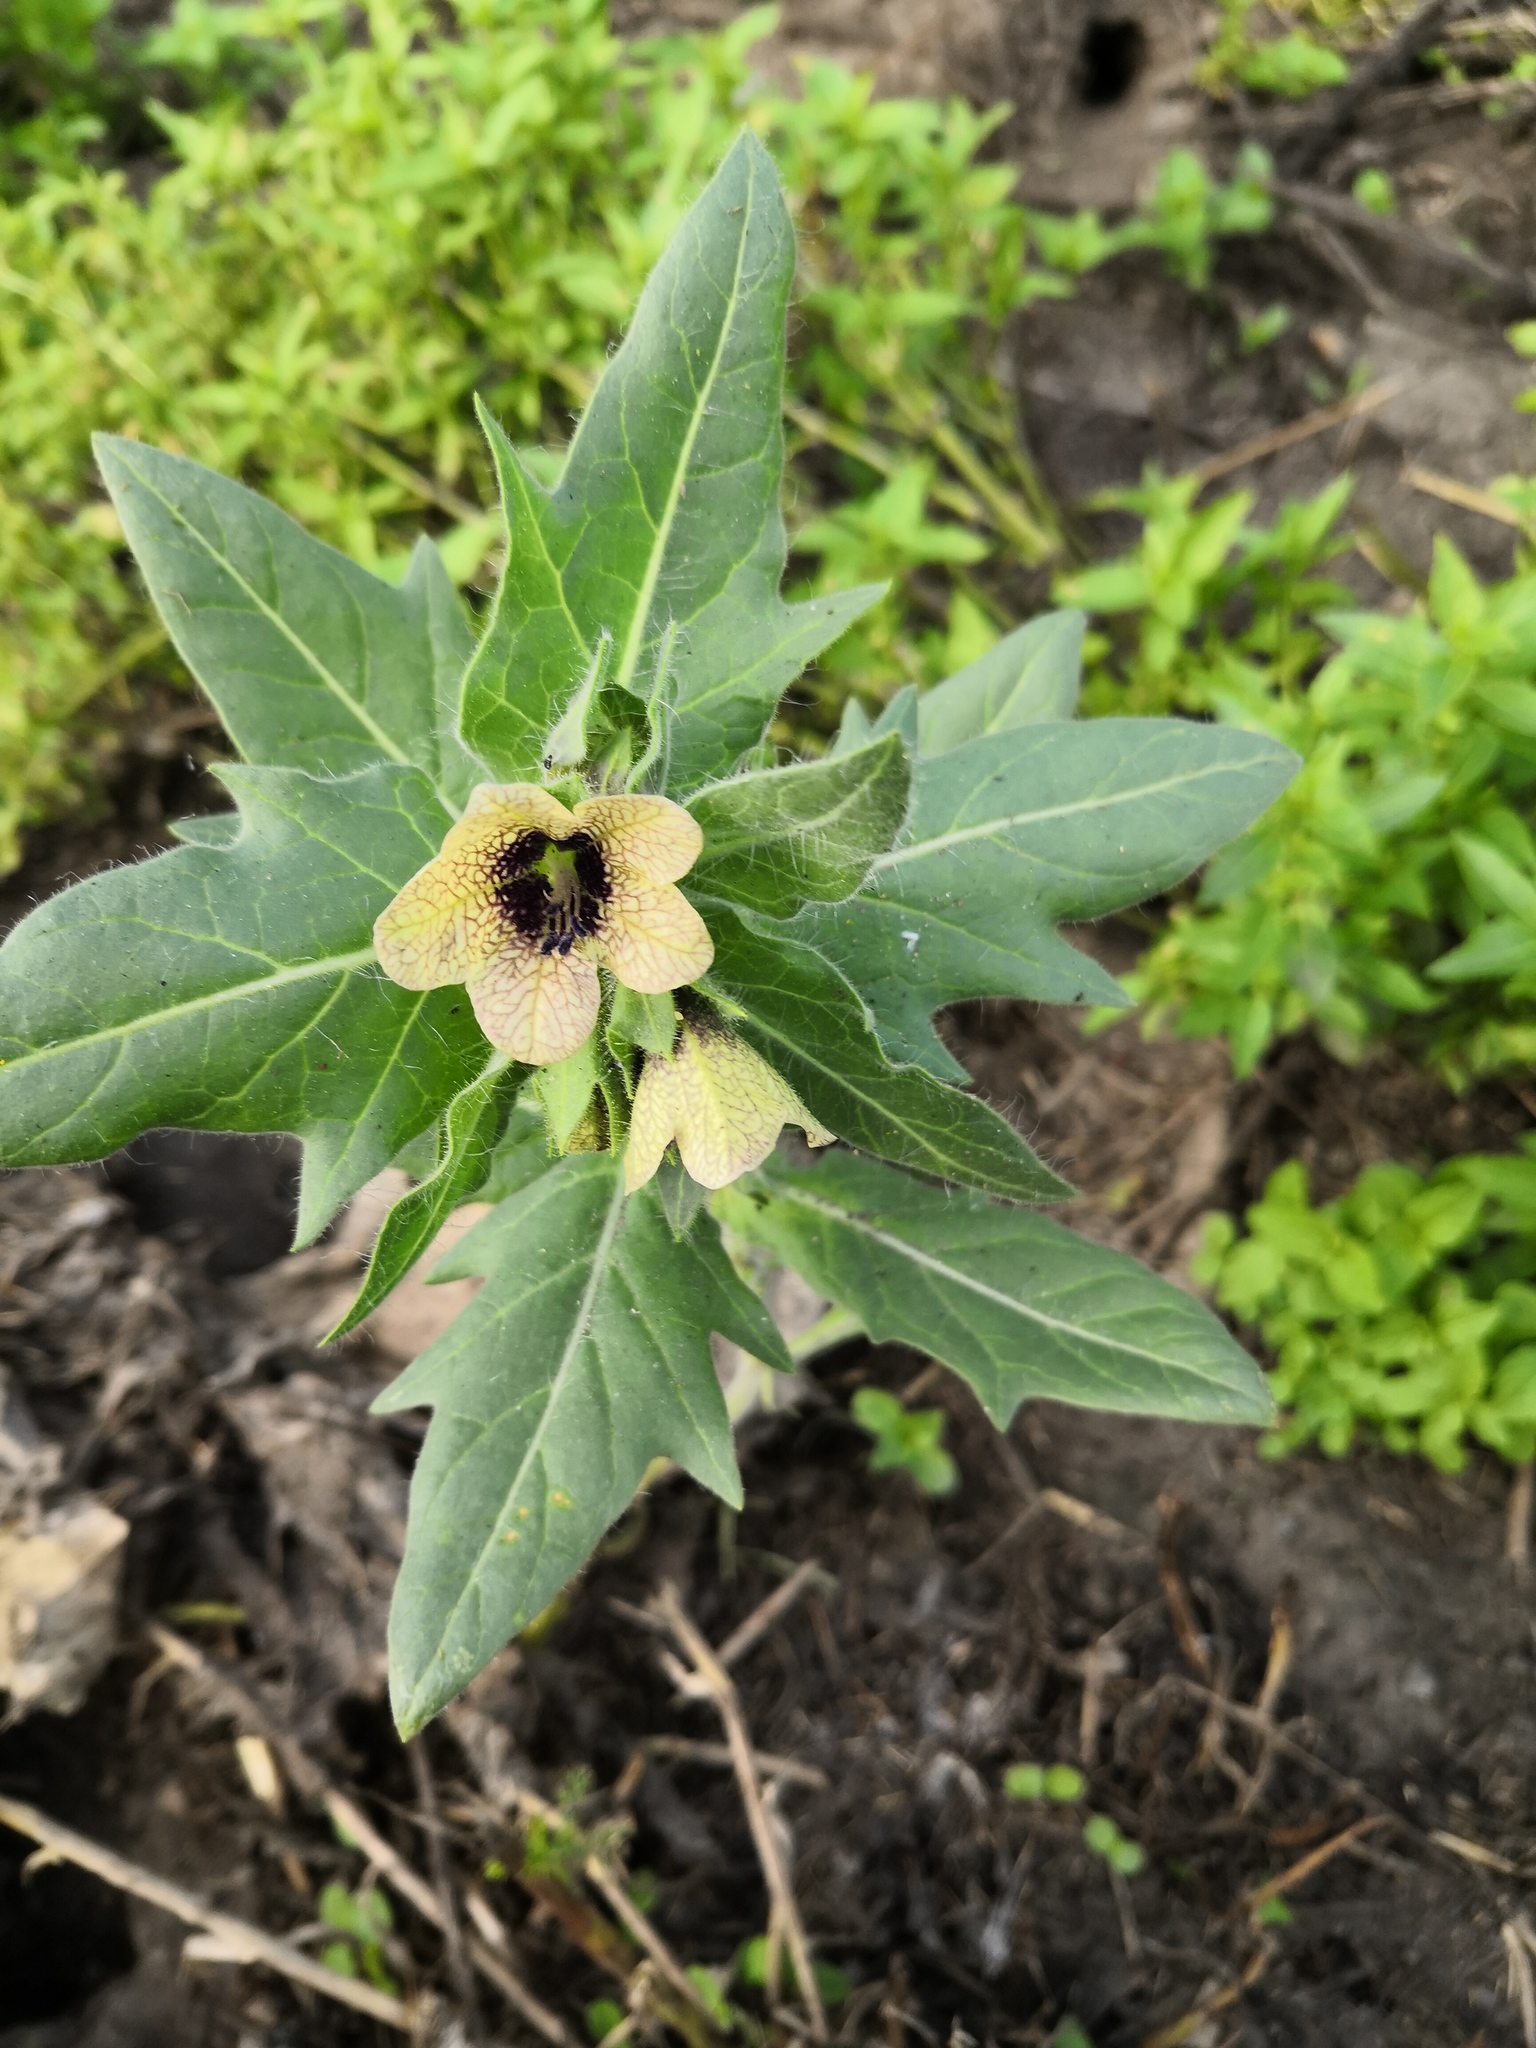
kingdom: Plantae
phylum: Tracheophyta
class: Magnoliopsida
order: Solanales
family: Solanaceae
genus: Hyoscyamus
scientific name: Hyoscyamus niger
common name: Henbane
